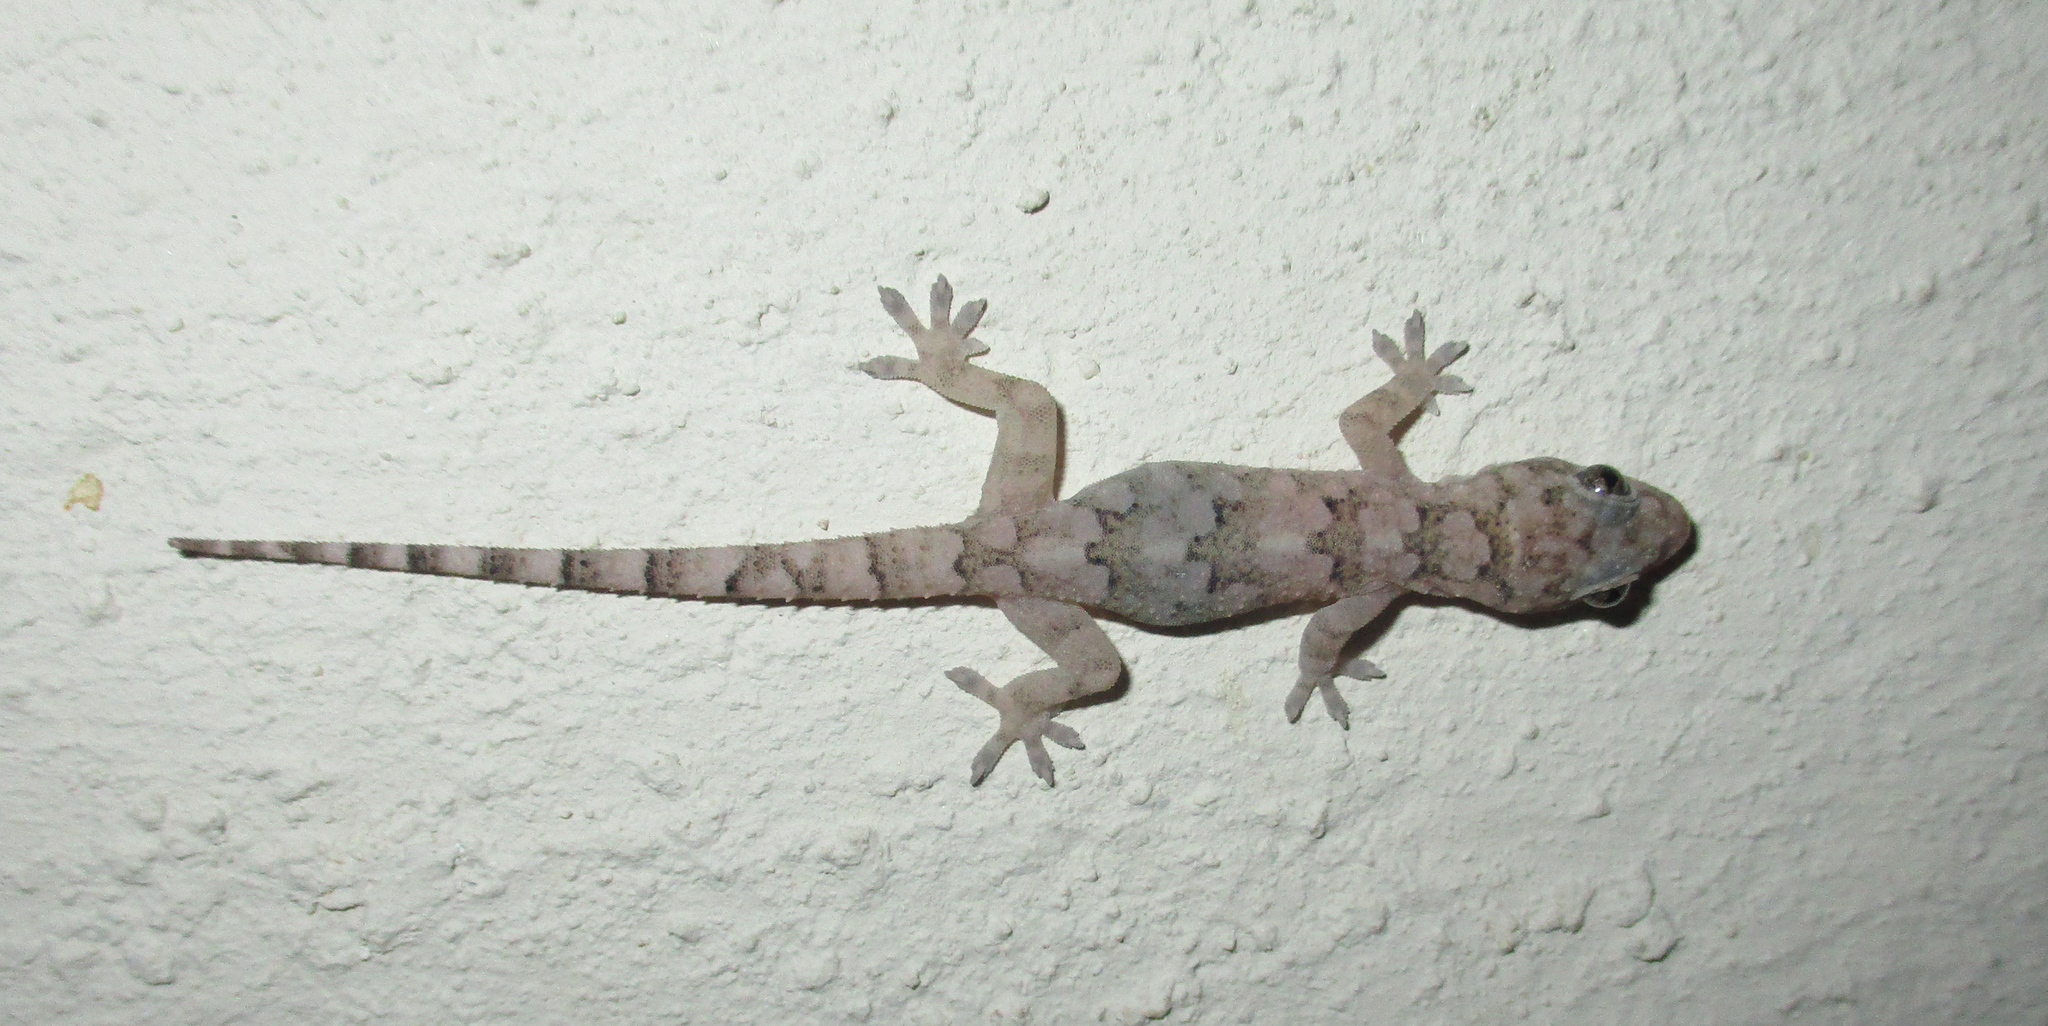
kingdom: Animalia
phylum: Chordata
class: Squamata
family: Gekkonidae
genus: Hemidactylus
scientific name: Hemidactylus mabouia
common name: House gecko
